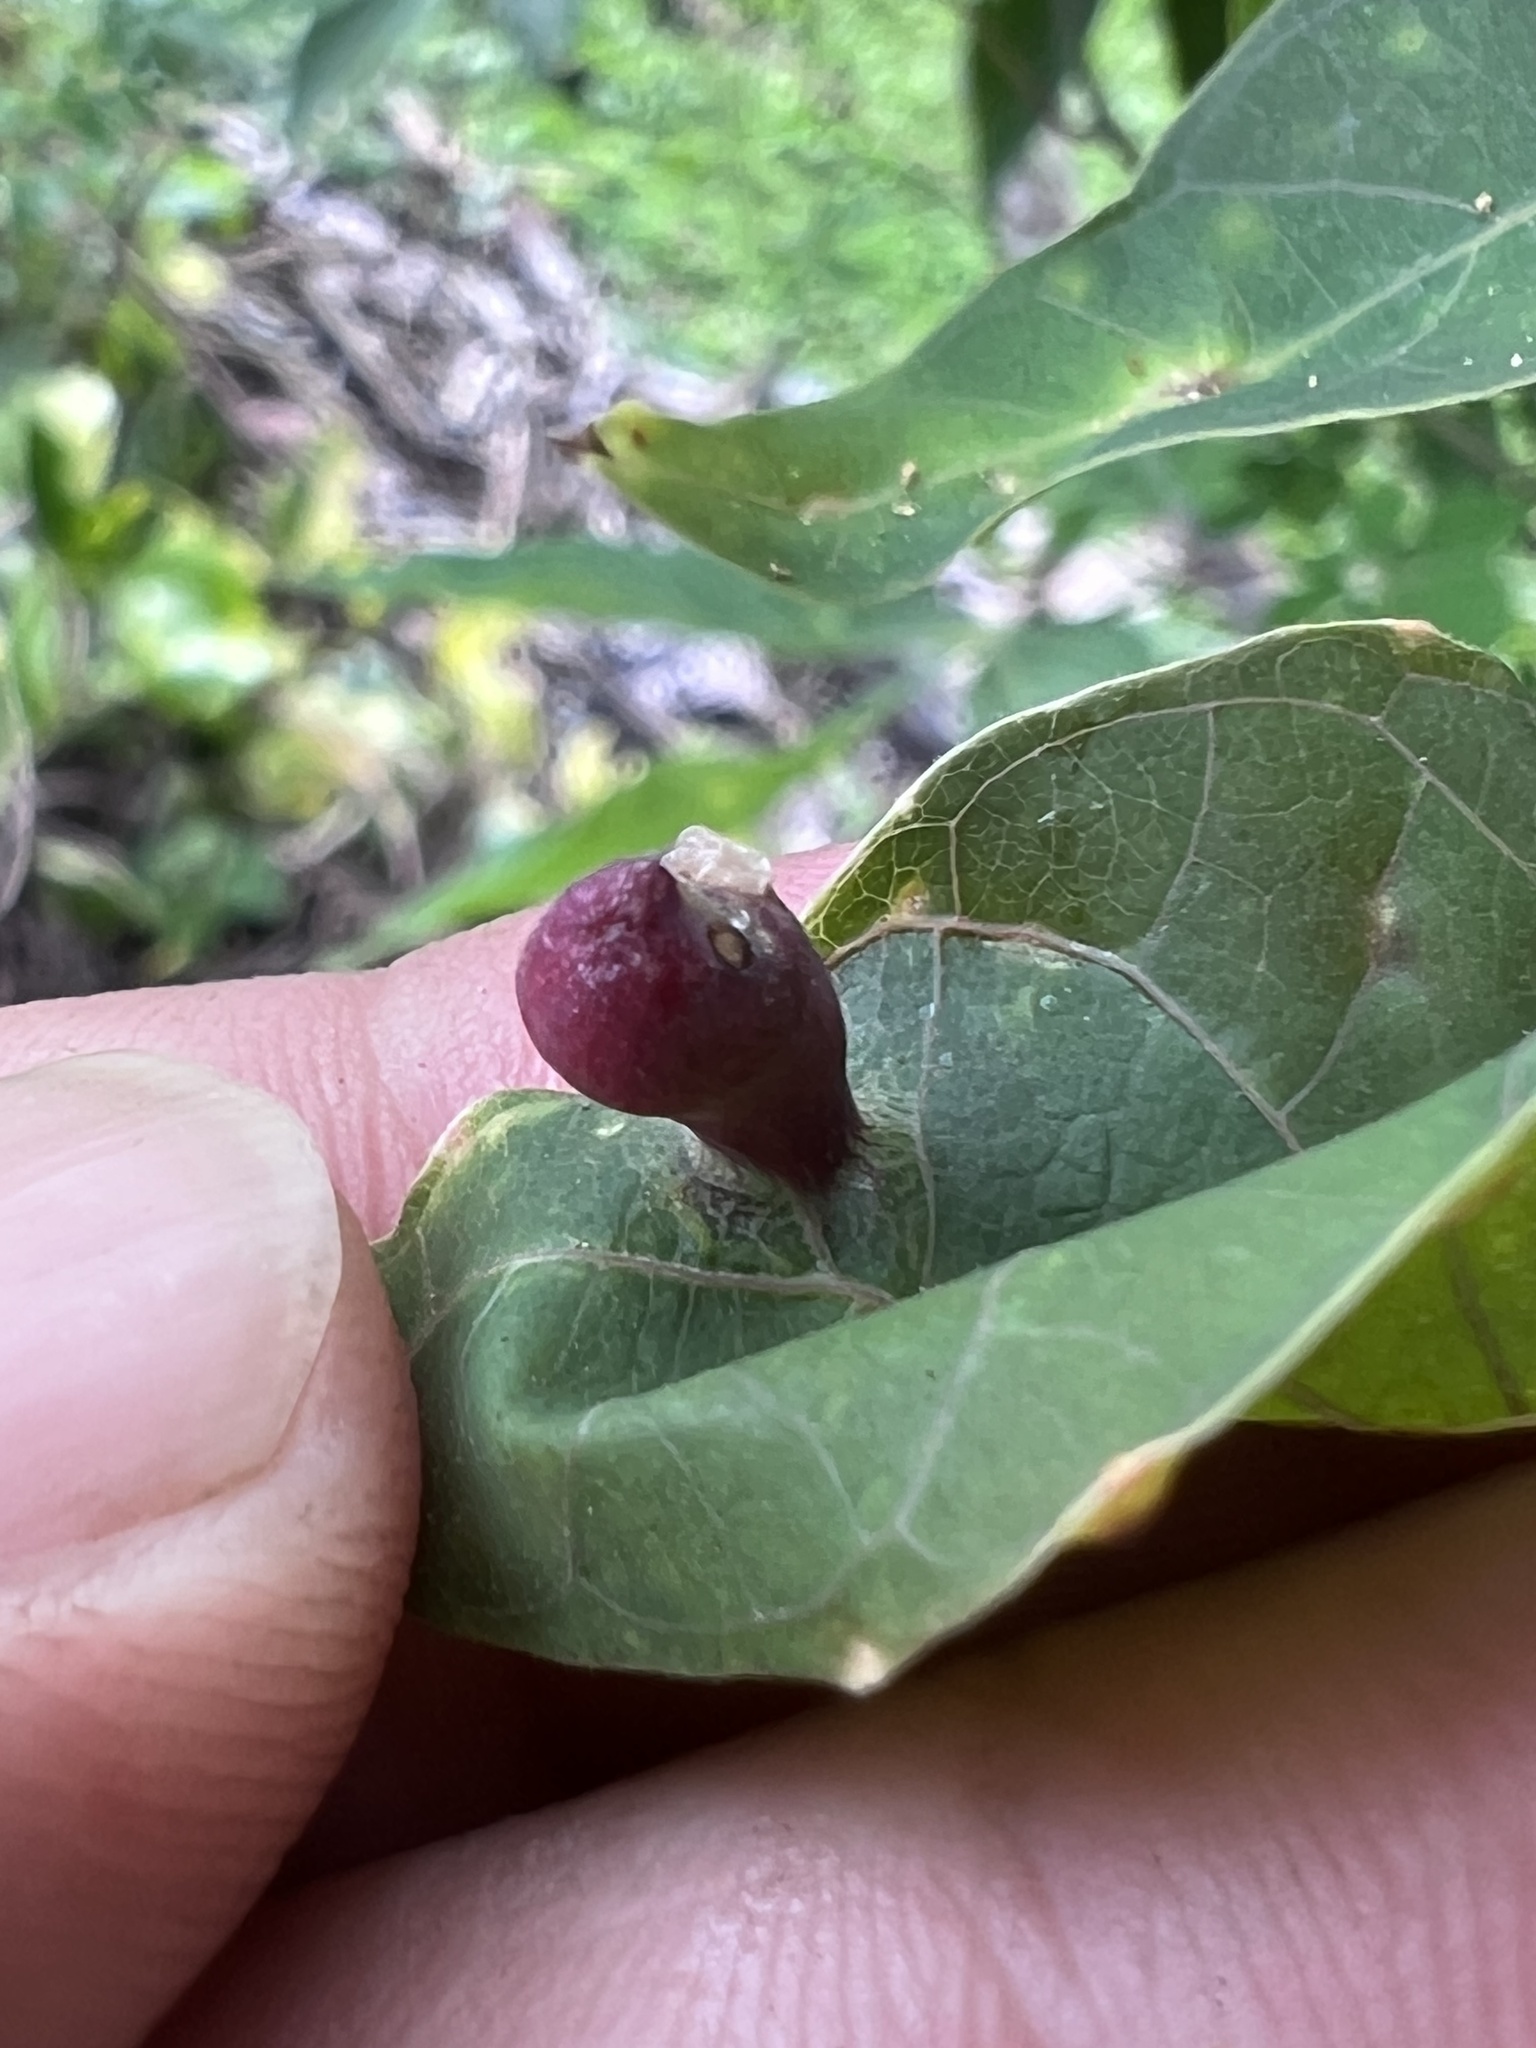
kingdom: Animalia
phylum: Arthropoda
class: Insecta
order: Diptera
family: Cecidomyiidae
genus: Iatrophobia
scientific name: Iatrophobia brasiliensis
